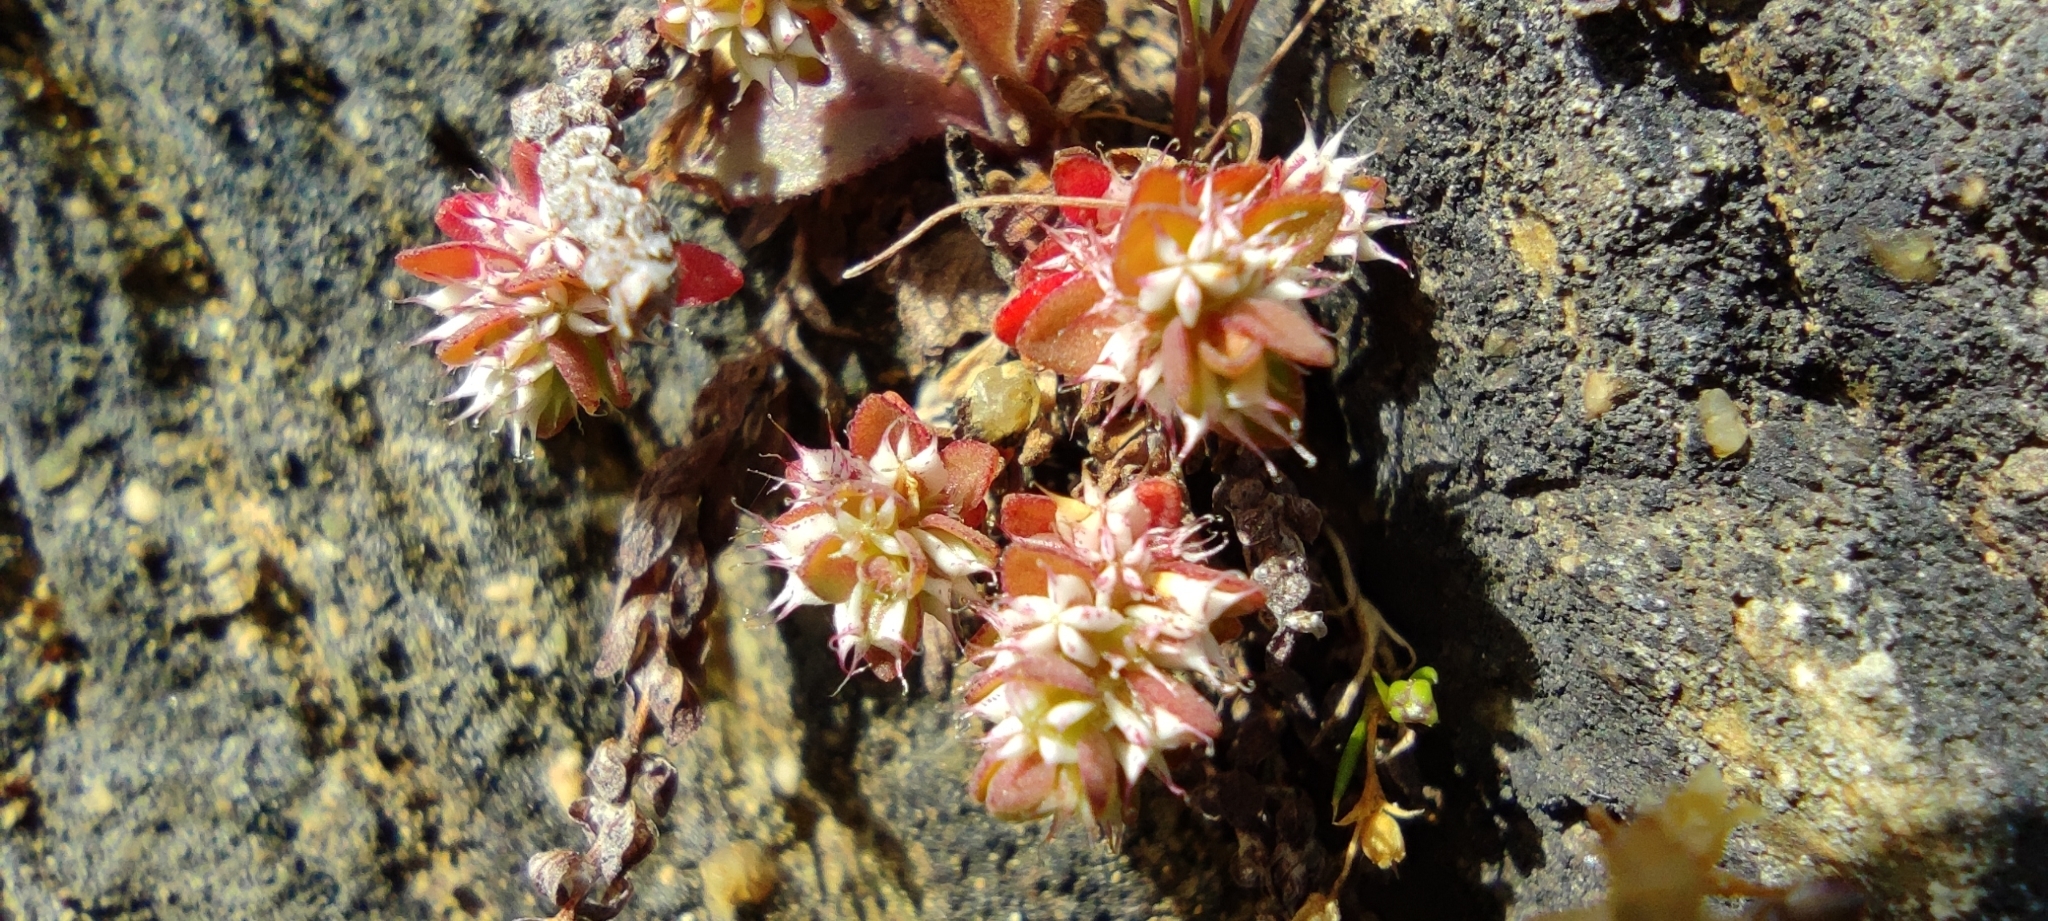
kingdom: Plantae
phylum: Tracheophyta
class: Magnoliopsida
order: Caryophyllales
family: Caryophyllaceae
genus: Illecebrum
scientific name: Illecebrum verticillatum
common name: Coral necklace
